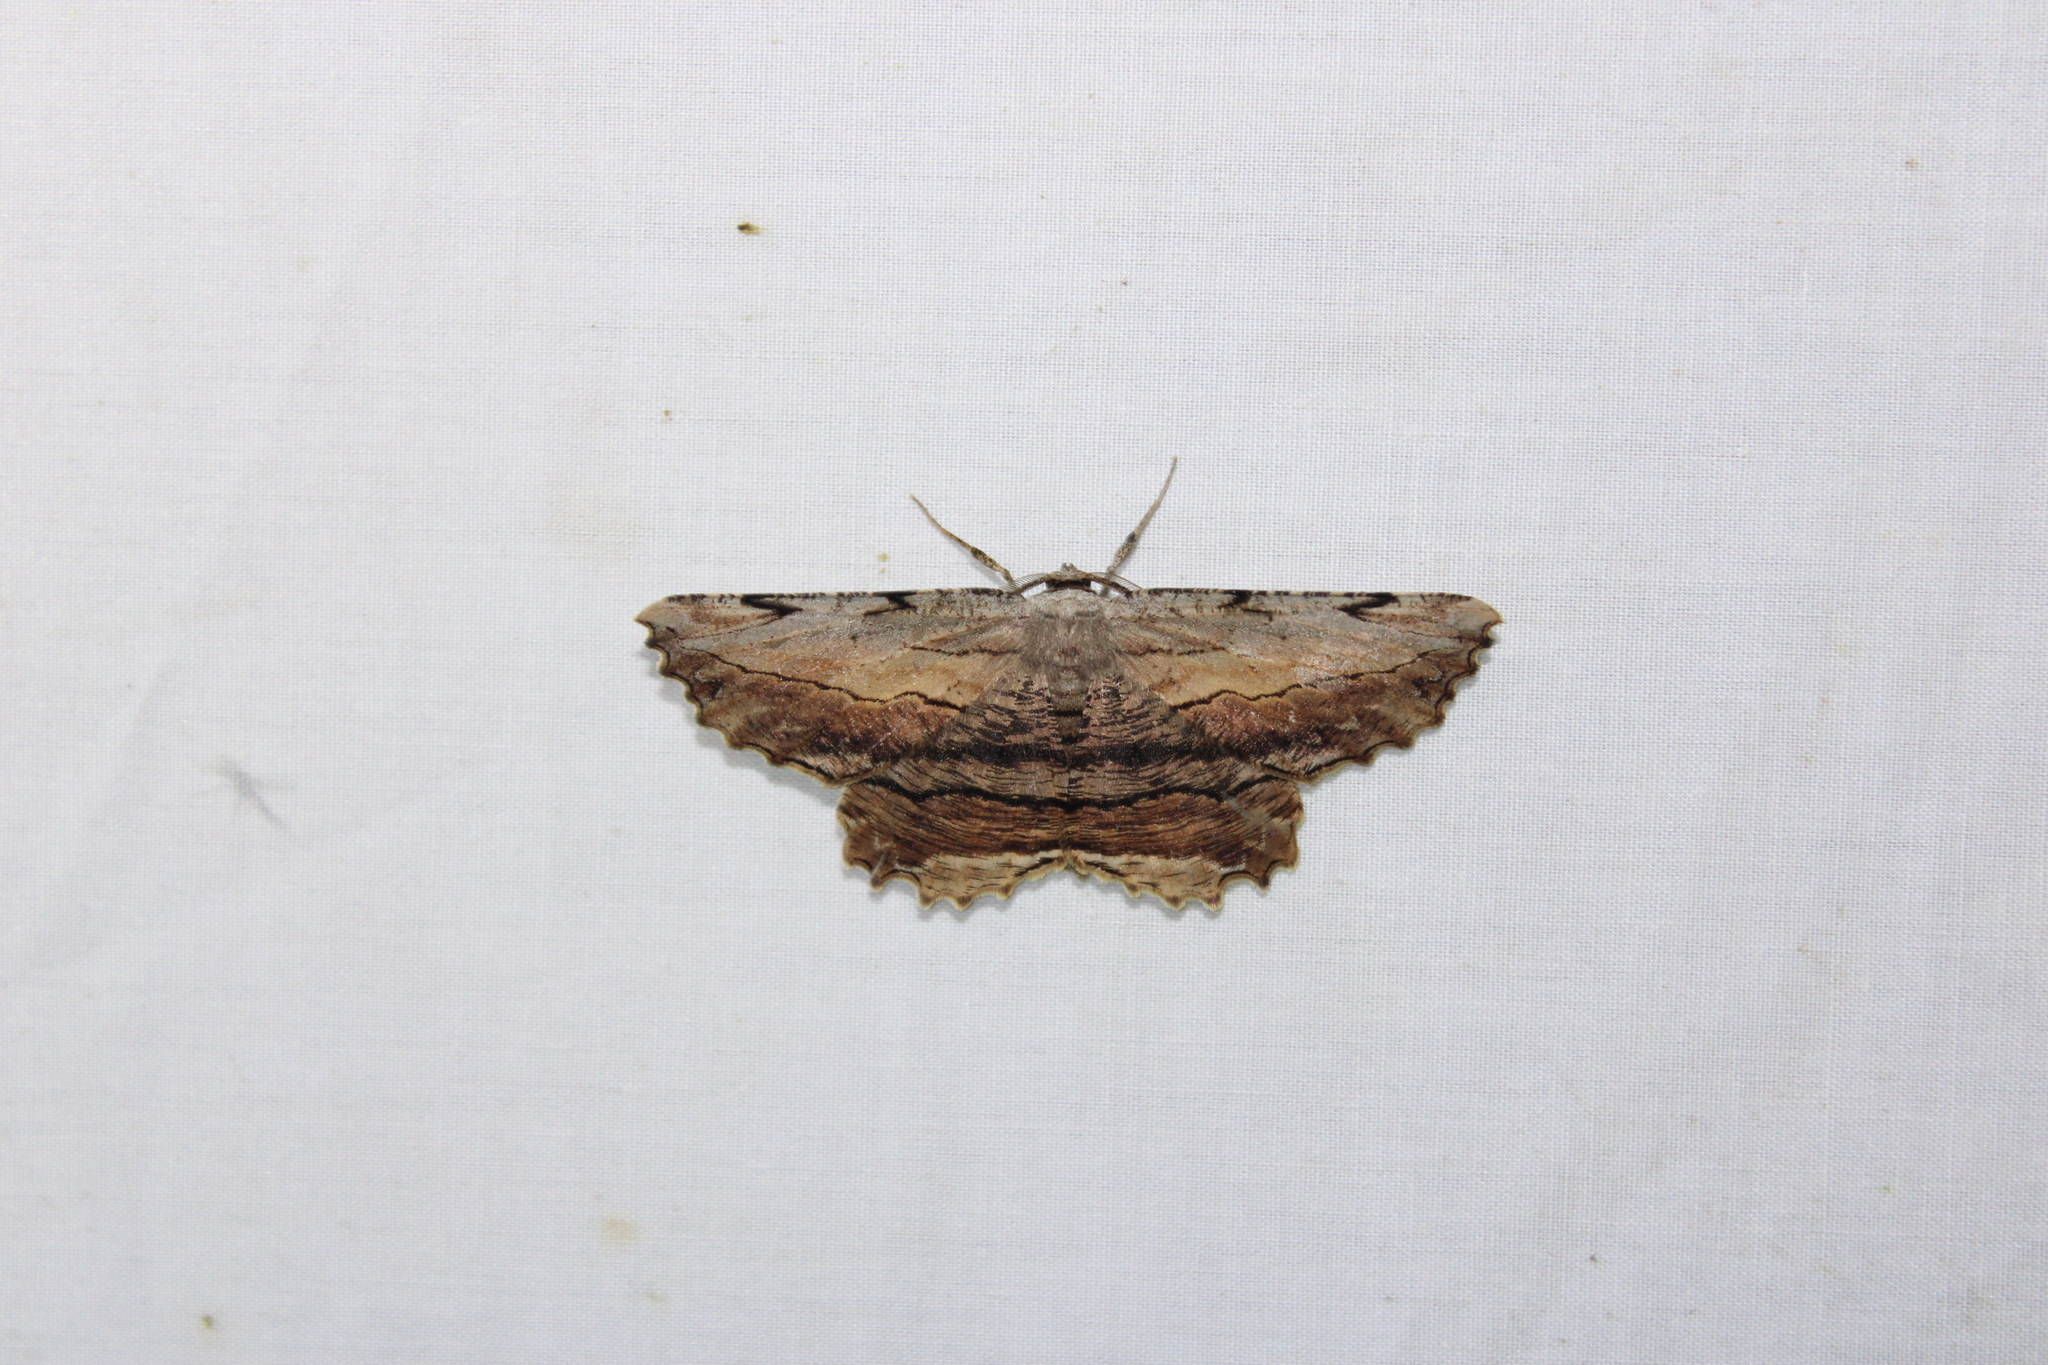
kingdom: Animalia
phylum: Arthropoda
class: Insecta
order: Lepidoptera
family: Geometridae
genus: Lytrosis
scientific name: Lytrosis unitaria
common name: Common lytrosis
